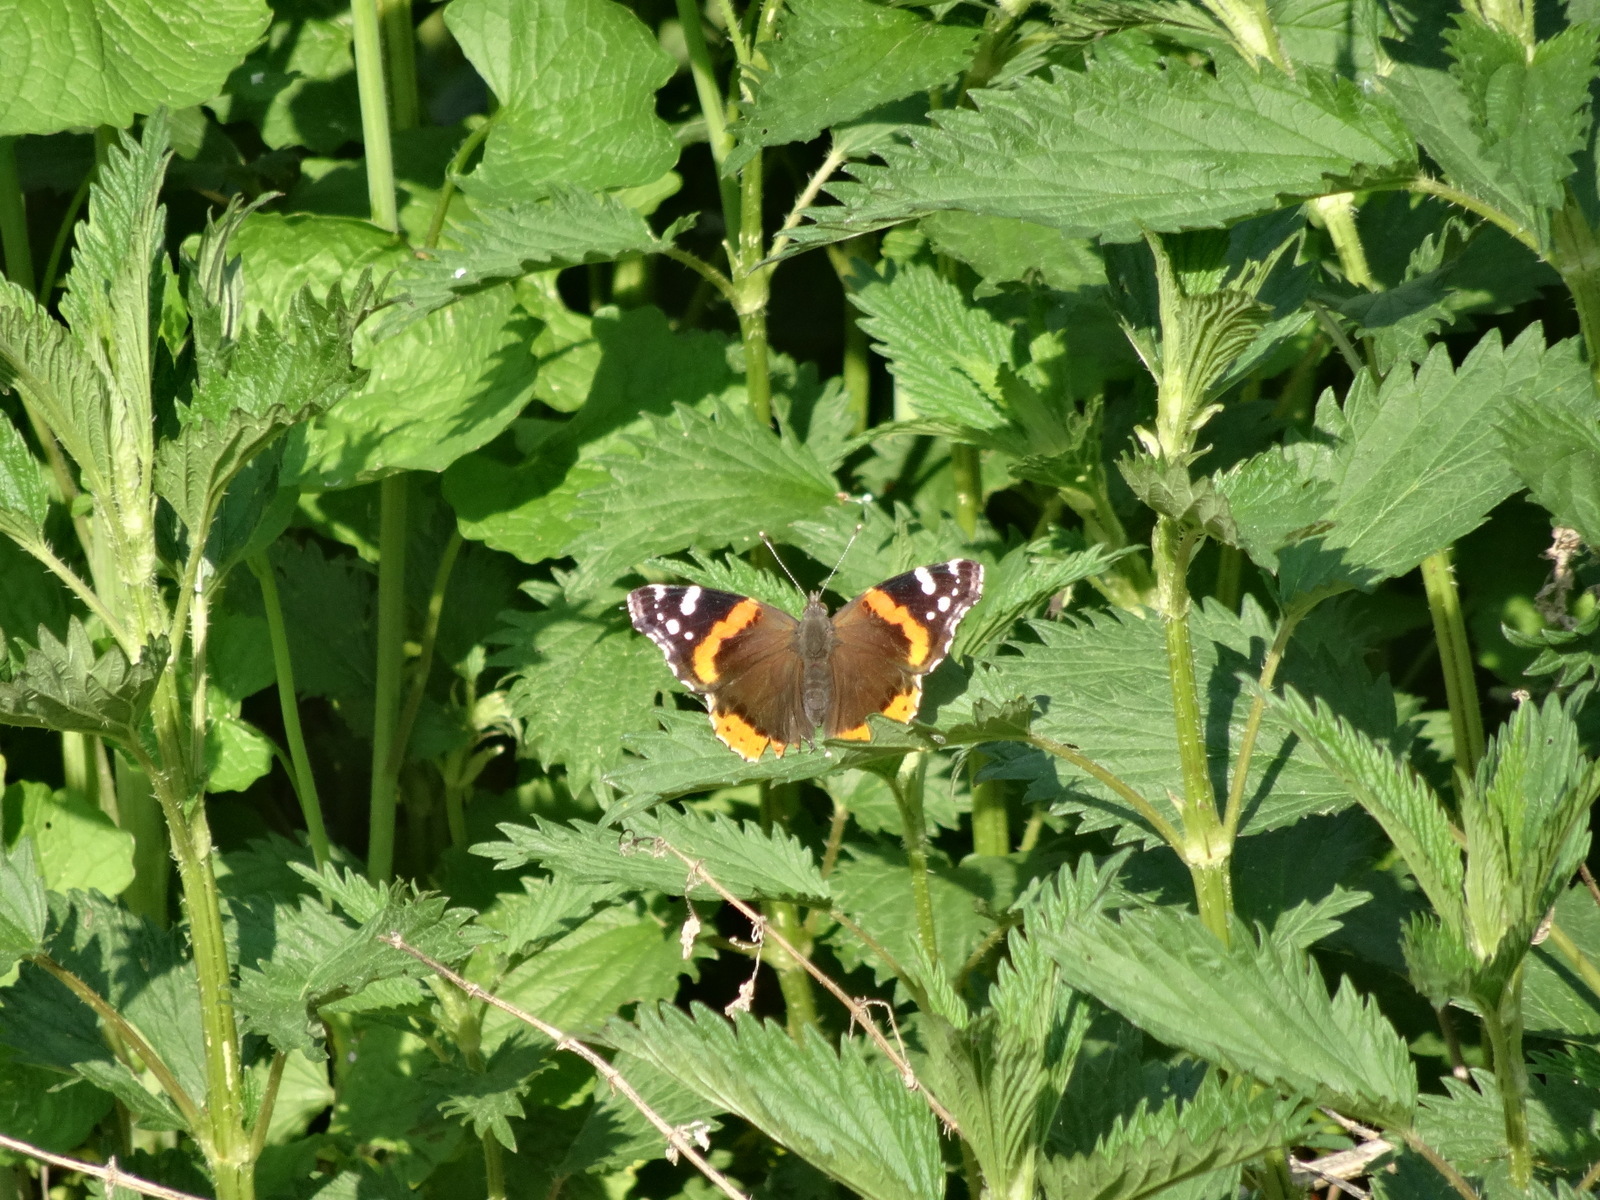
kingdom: Animalia
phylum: Arthropoda
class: Insecta
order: Lepidoptera
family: Nymphalidae
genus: Vanessa
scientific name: Vanessa atalanta
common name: Red admiral
